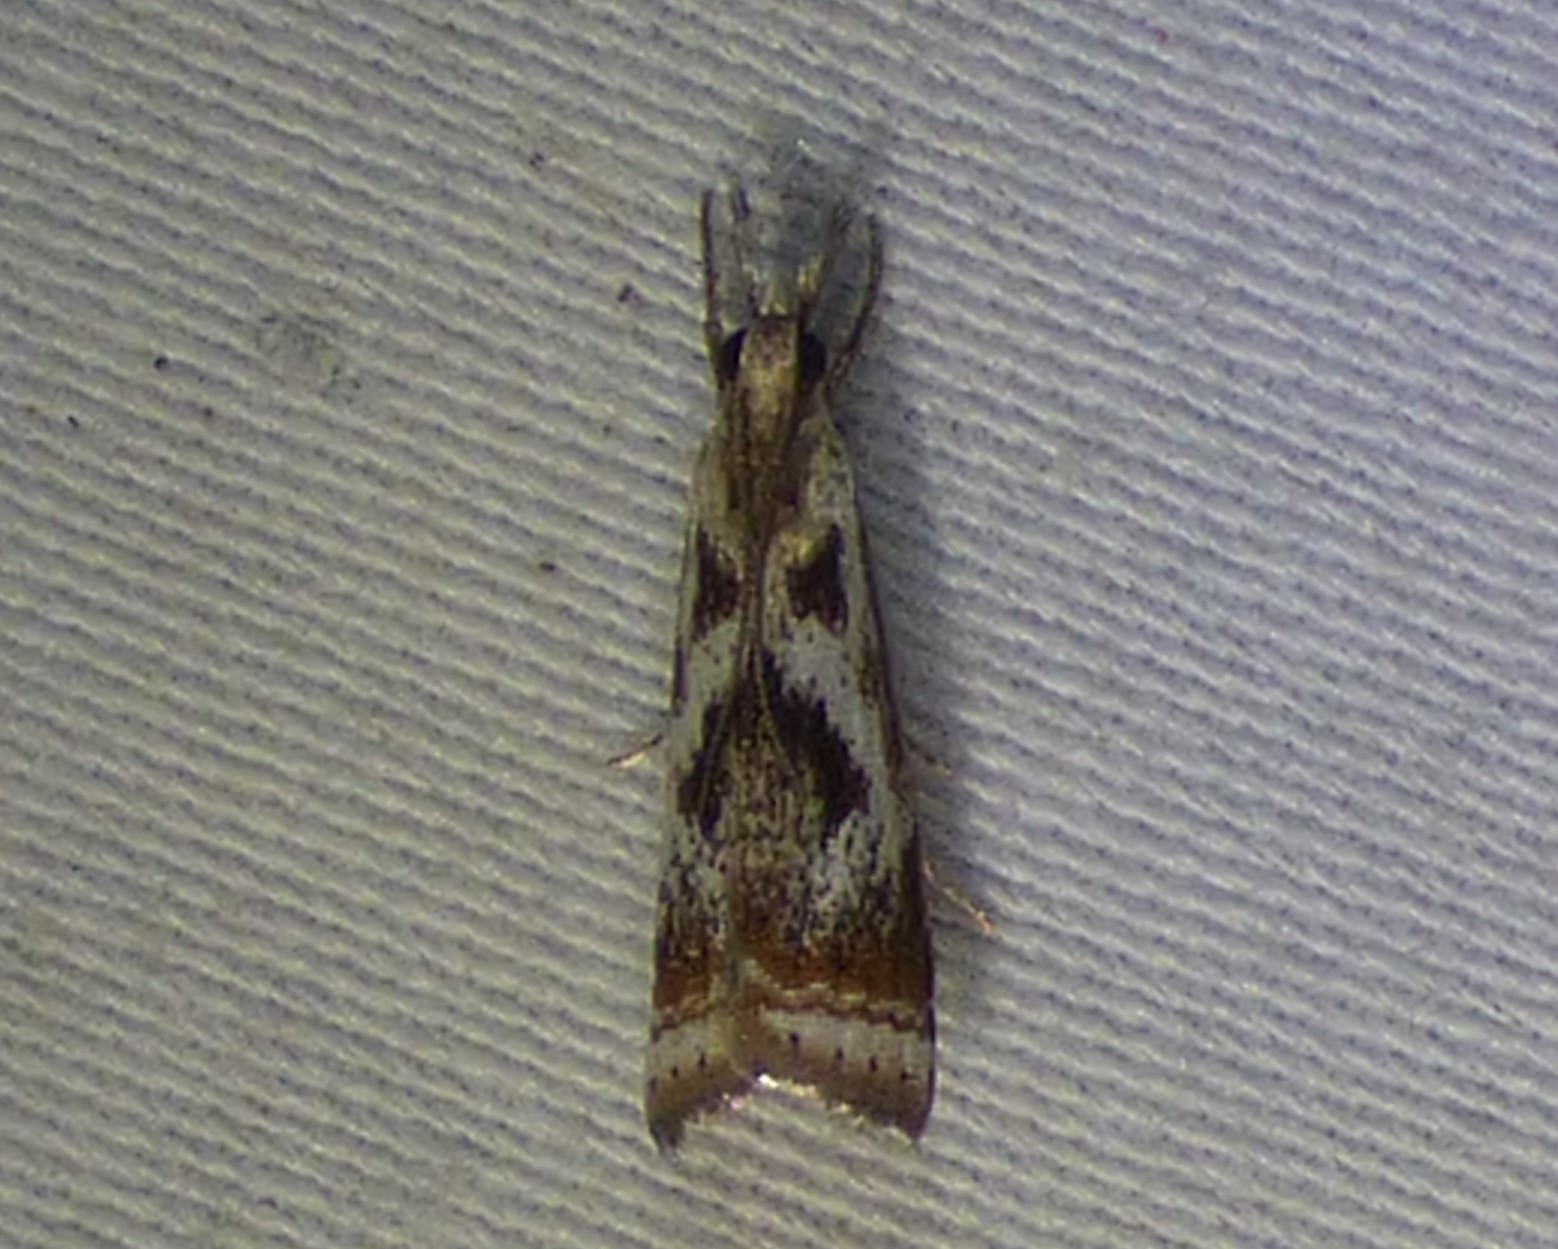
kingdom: Animalia
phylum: Arthropoda
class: Insecta
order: Lepidoptera
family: Crambidae
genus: Microcrambus
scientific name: Microcrambus elegans
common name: Elegant grass-veneer
